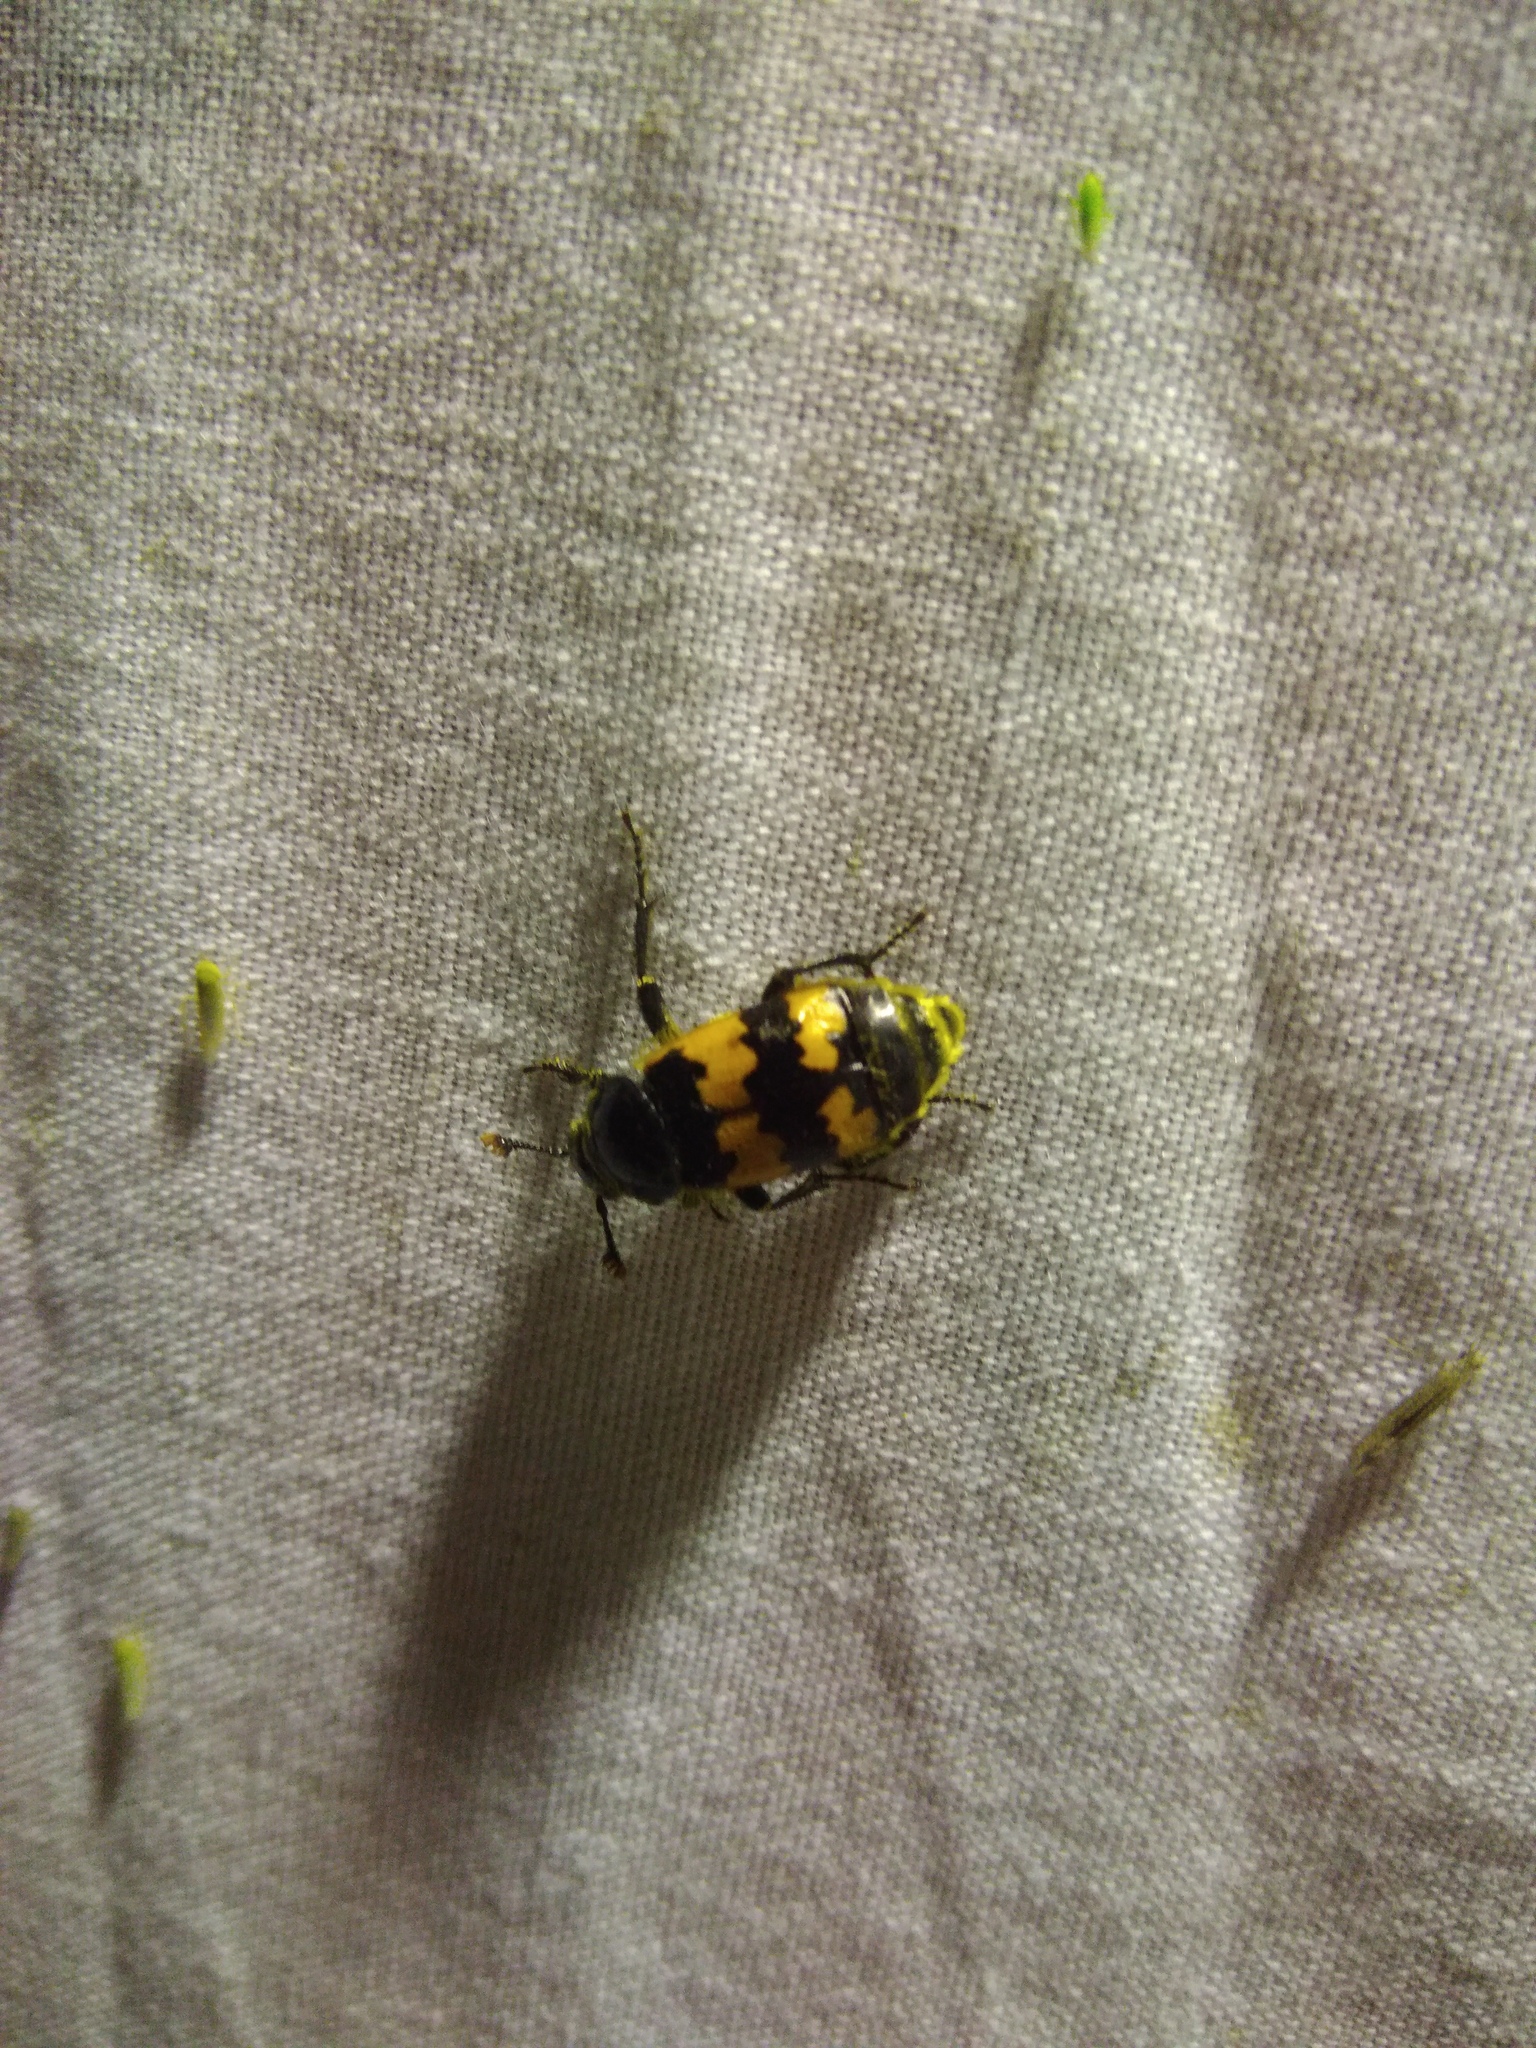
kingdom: Animalia
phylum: Arthropoda
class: Insecta
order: Coleoptera
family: Staphylinidae
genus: Nicrophorus
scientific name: Nicrophorus vespillo
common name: Common burying beetle
